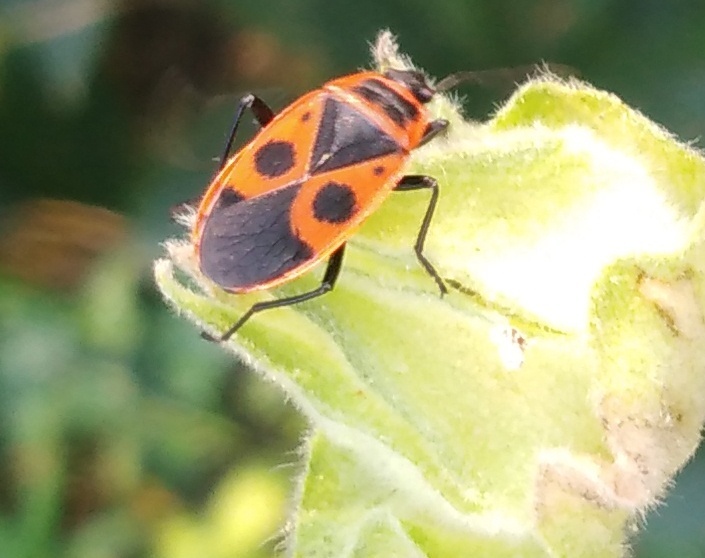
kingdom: Animalia
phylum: Arthropoda
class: Insecta
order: Hemiptera
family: Pyrrhocoridae
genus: Pyrrhocoris
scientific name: Pyrrhocoris apterus
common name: Firebug
